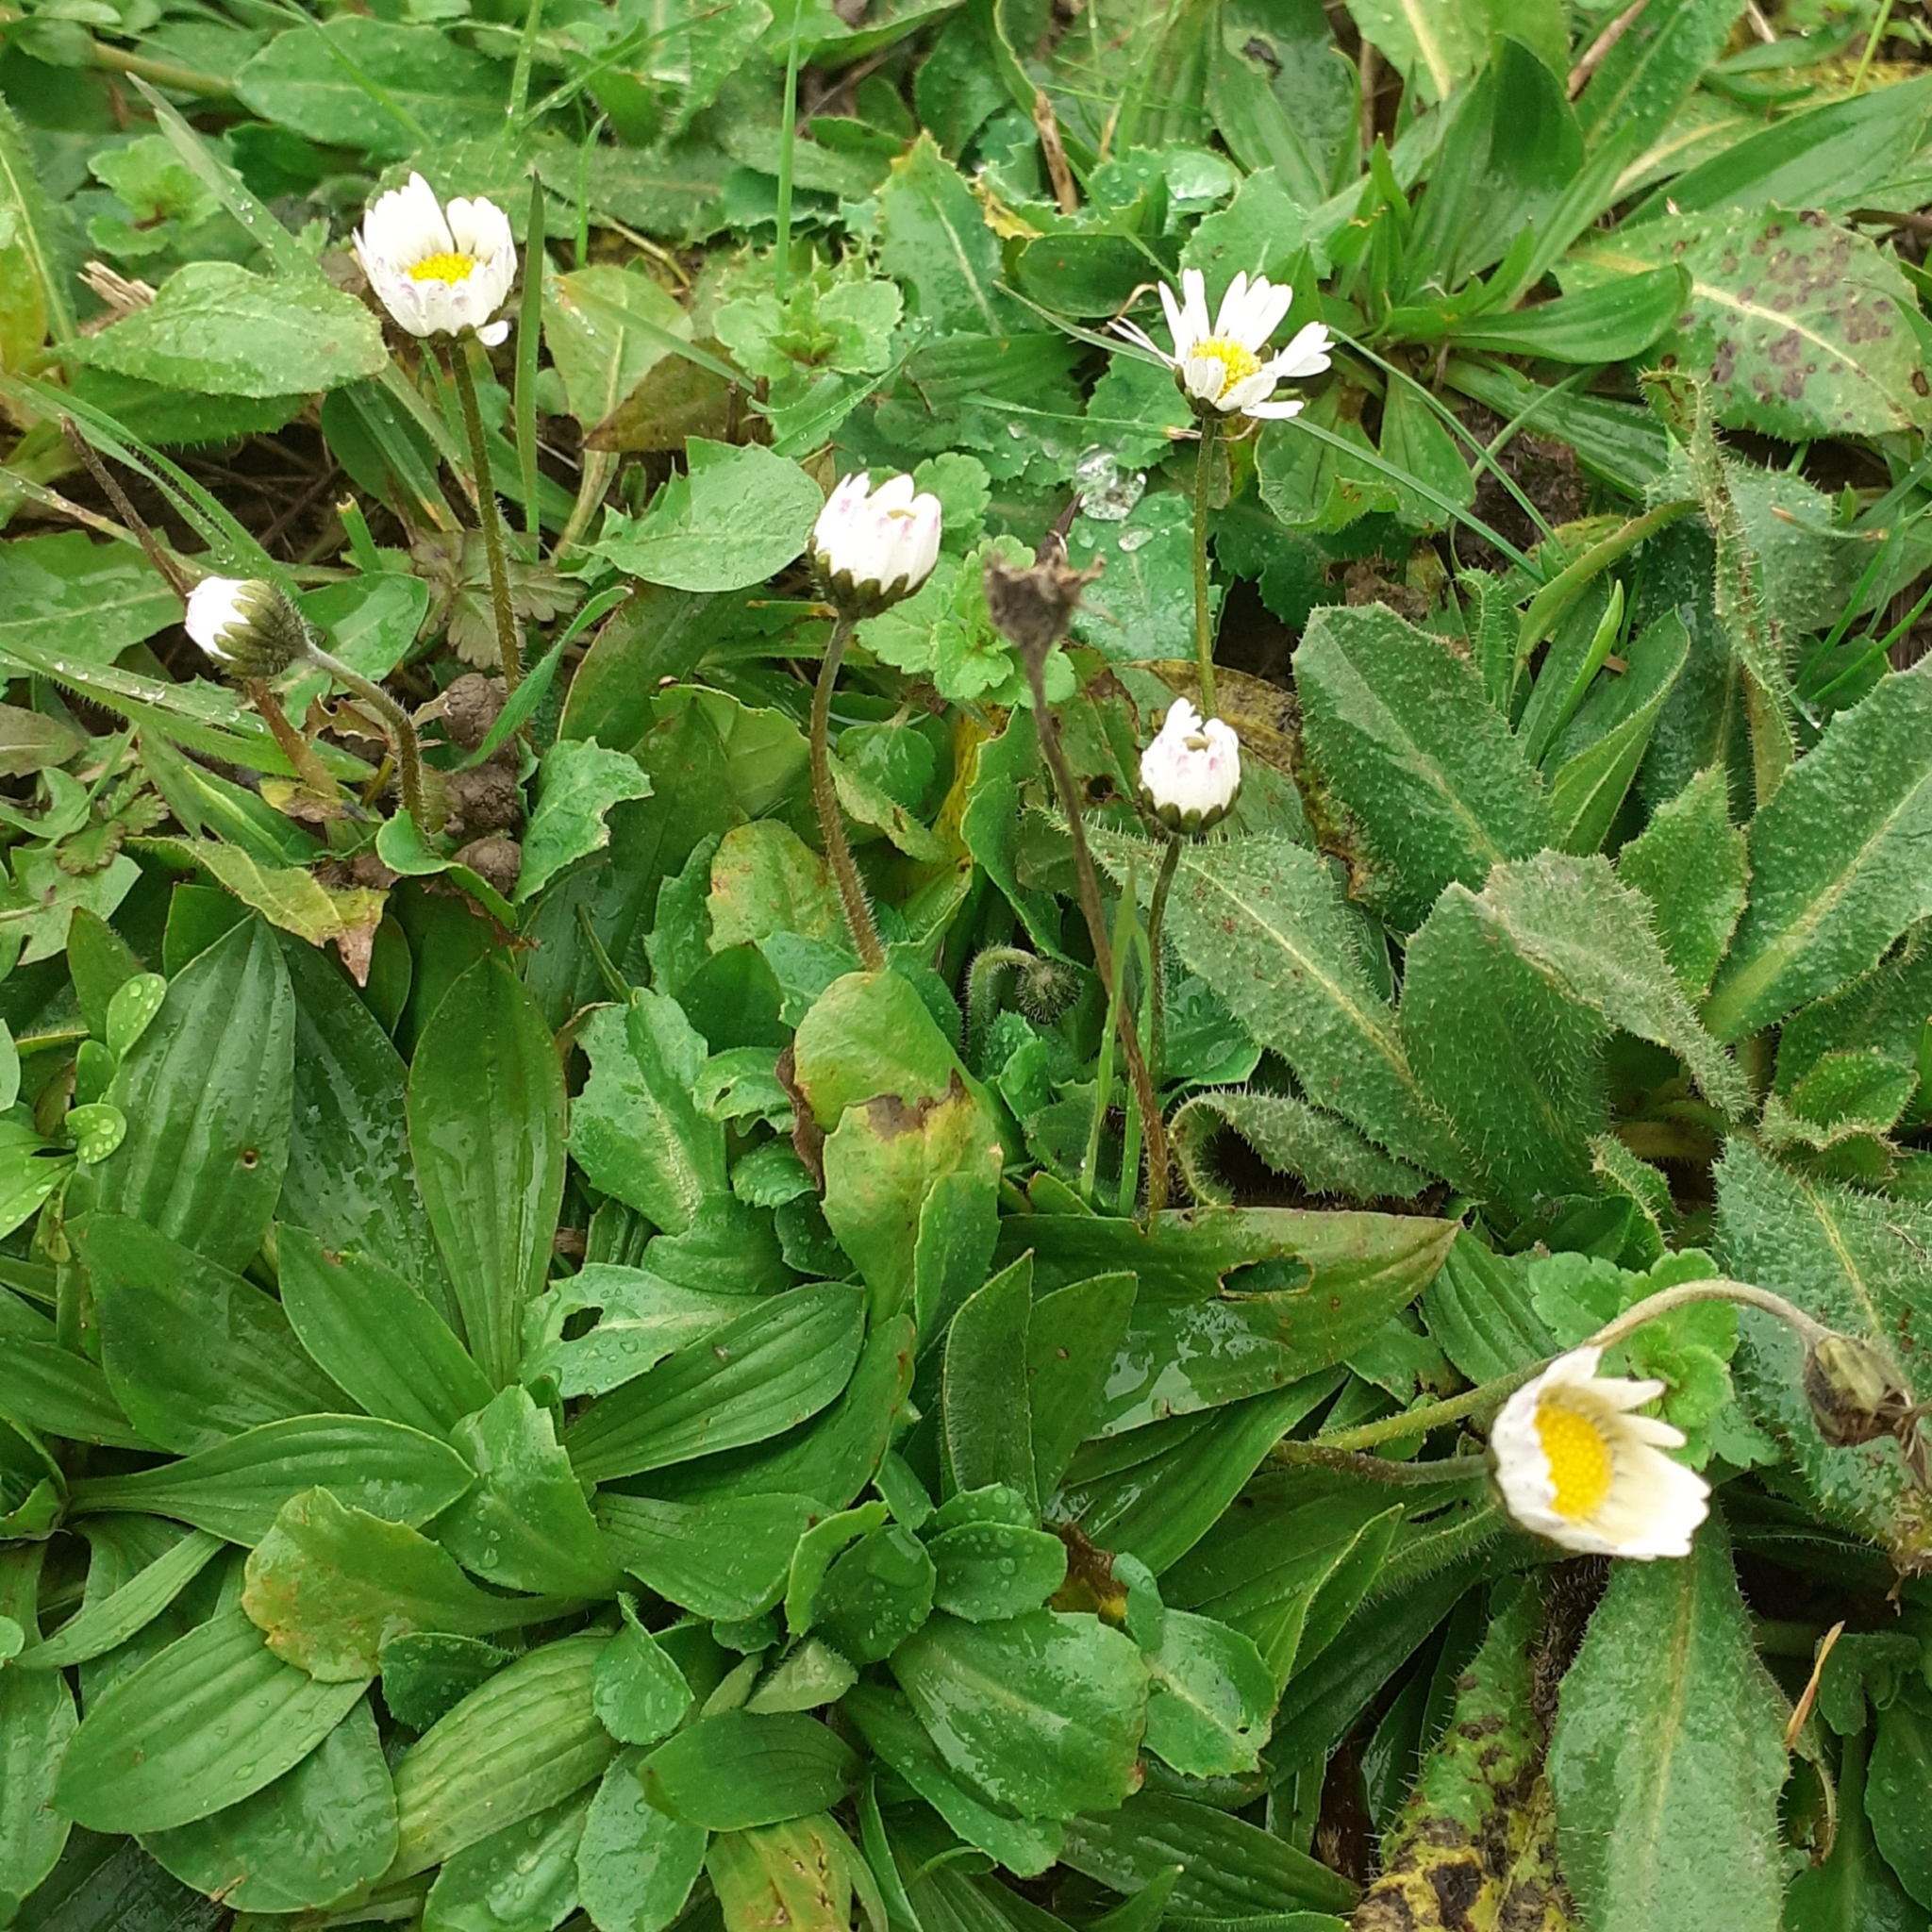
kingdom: Plantae
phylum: Tracheophyta
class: Magnoliopsida
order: Asterales
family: Asteraceae
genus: Bellis
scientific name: Bellis perennis
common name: Lawndaisy
